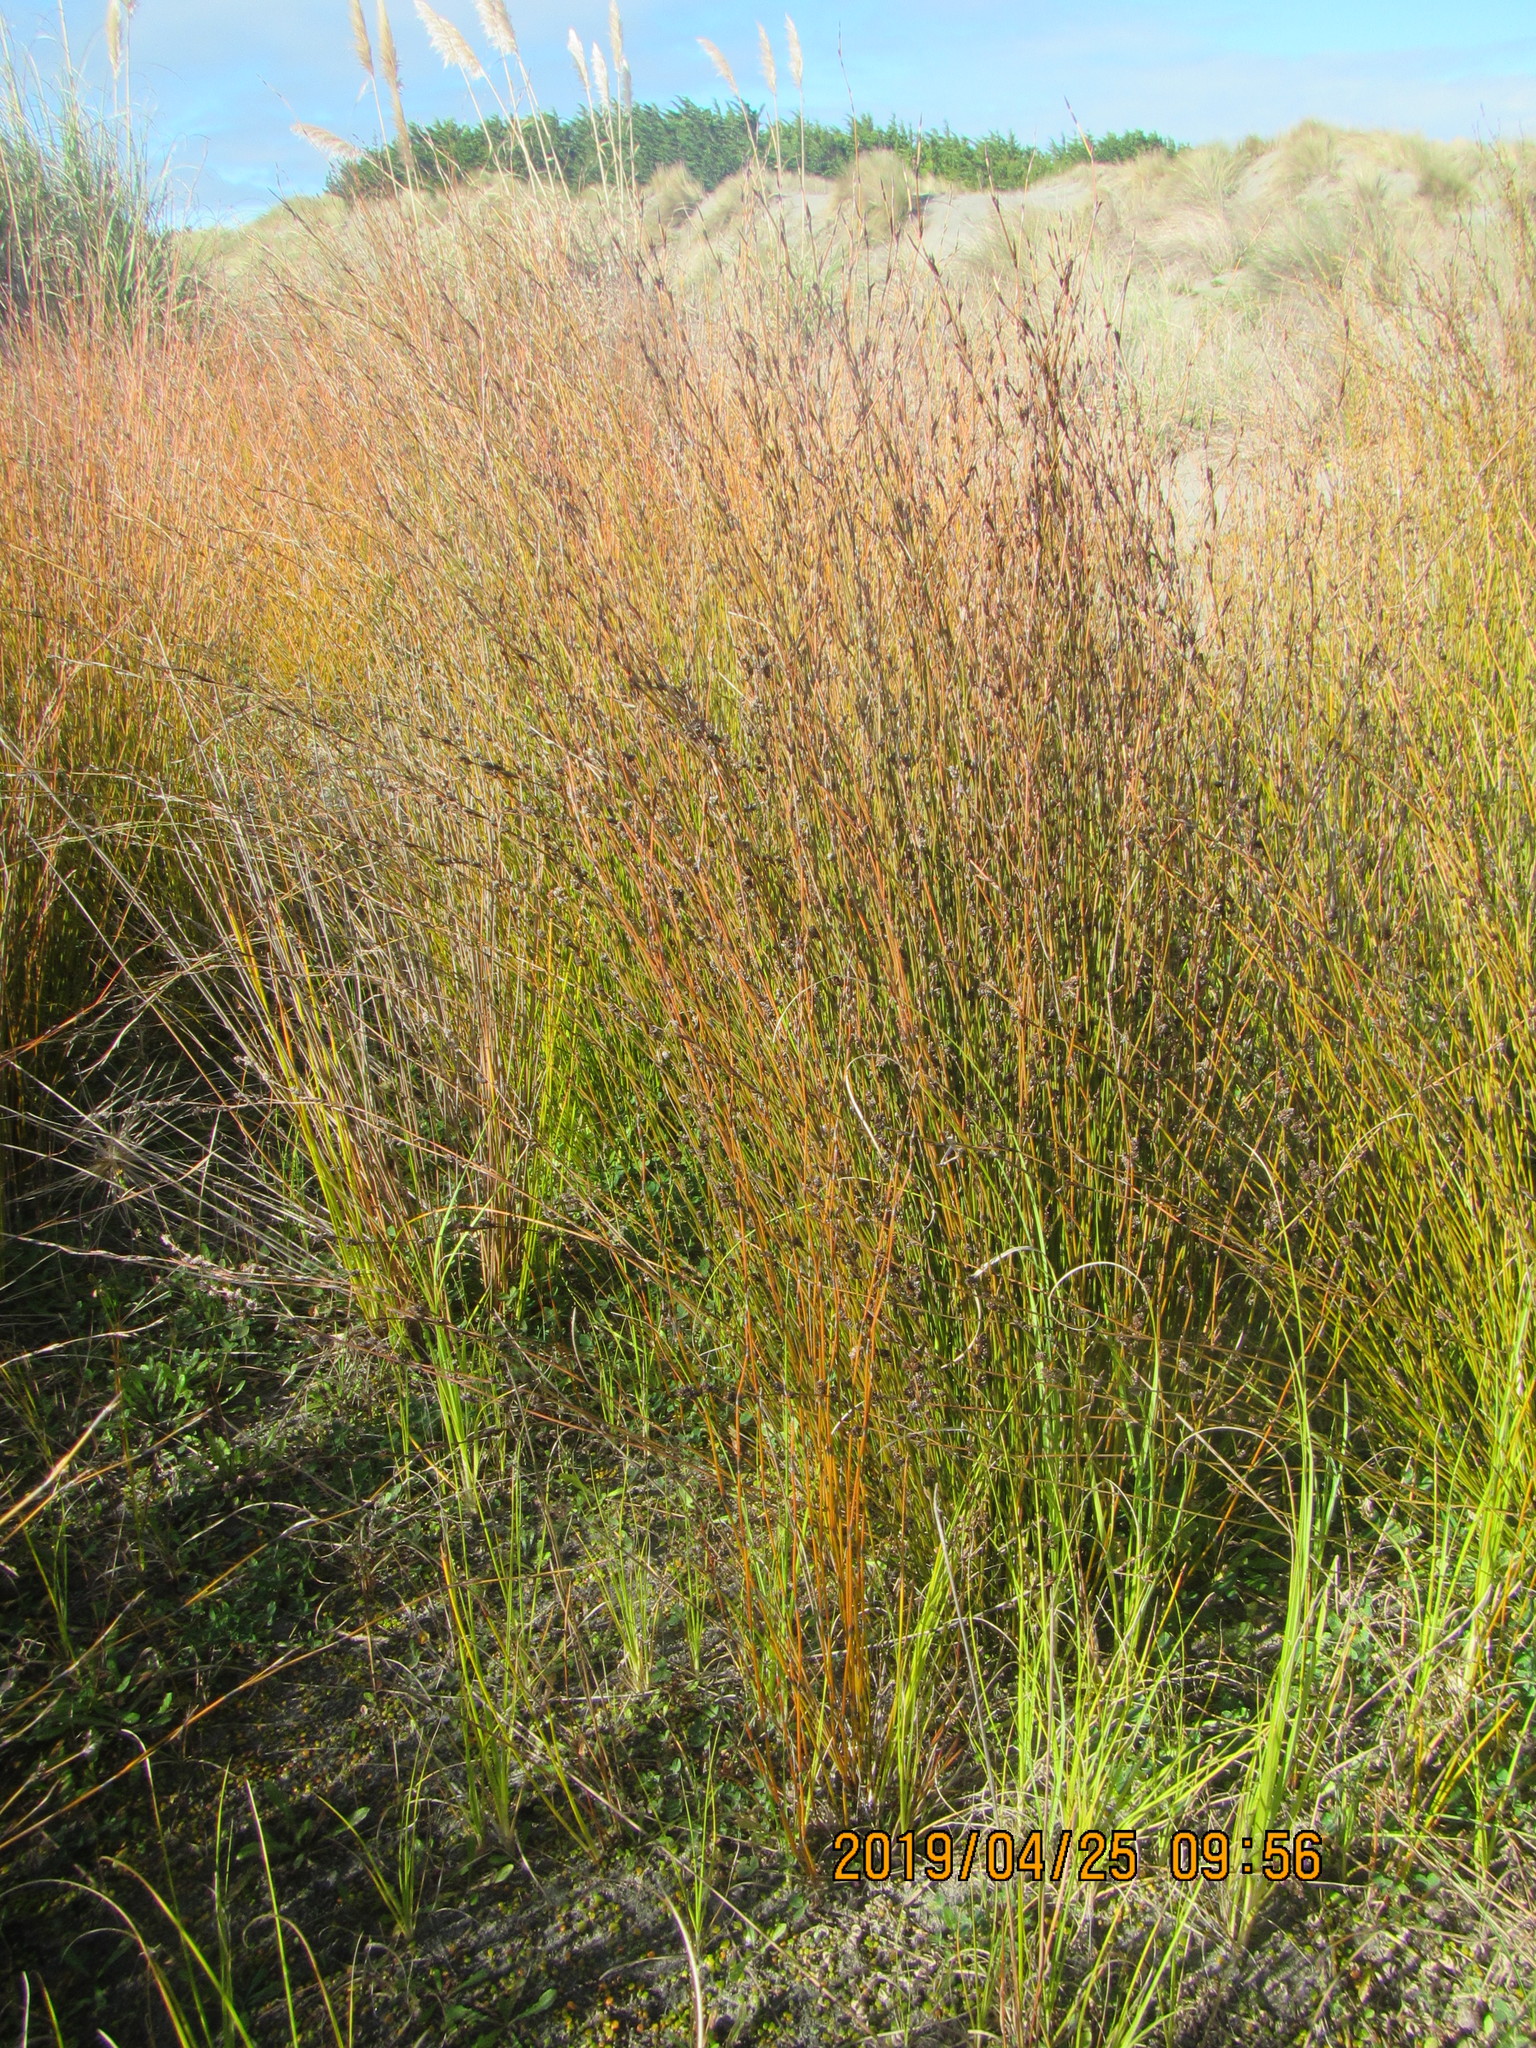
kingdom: Plantae
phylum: Tracheophyta
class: Liliopsida
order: Poales
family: Restionaceae
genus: Apodasmia
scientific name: Apodasmia similis
